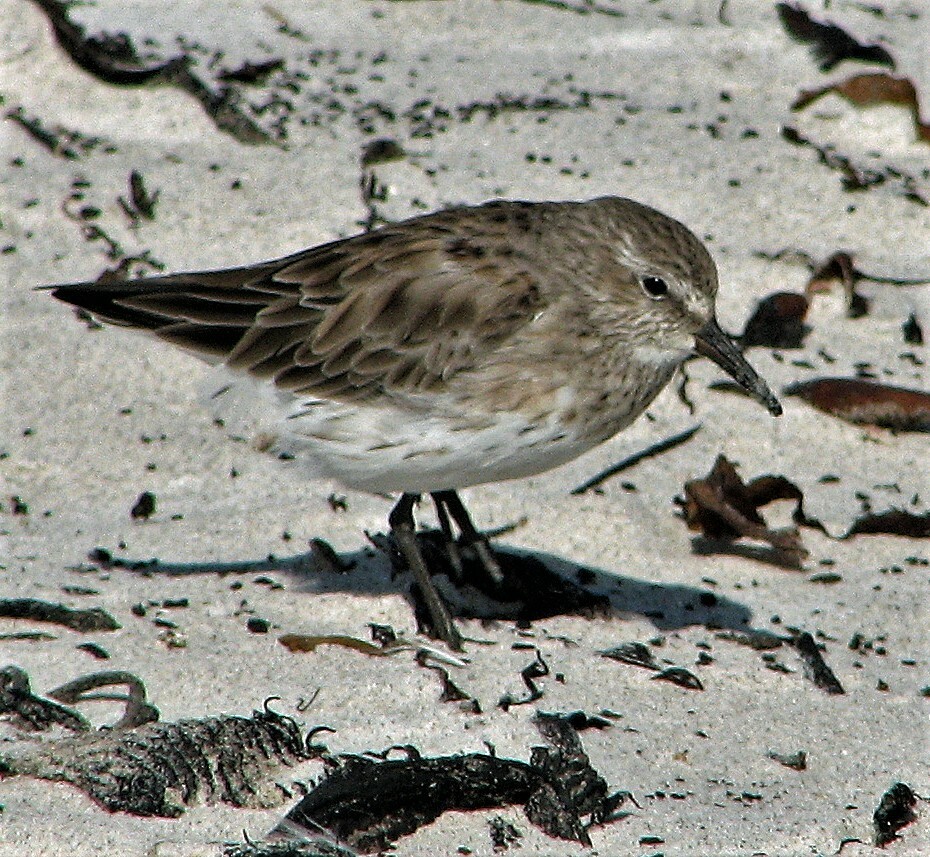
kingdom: Animalia
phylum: Chordata
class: Aves
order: Charadriiformes
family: Scolopacidae
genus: Calidris
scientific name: Calidris fuscicollis
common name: White-rumped sandpiper
